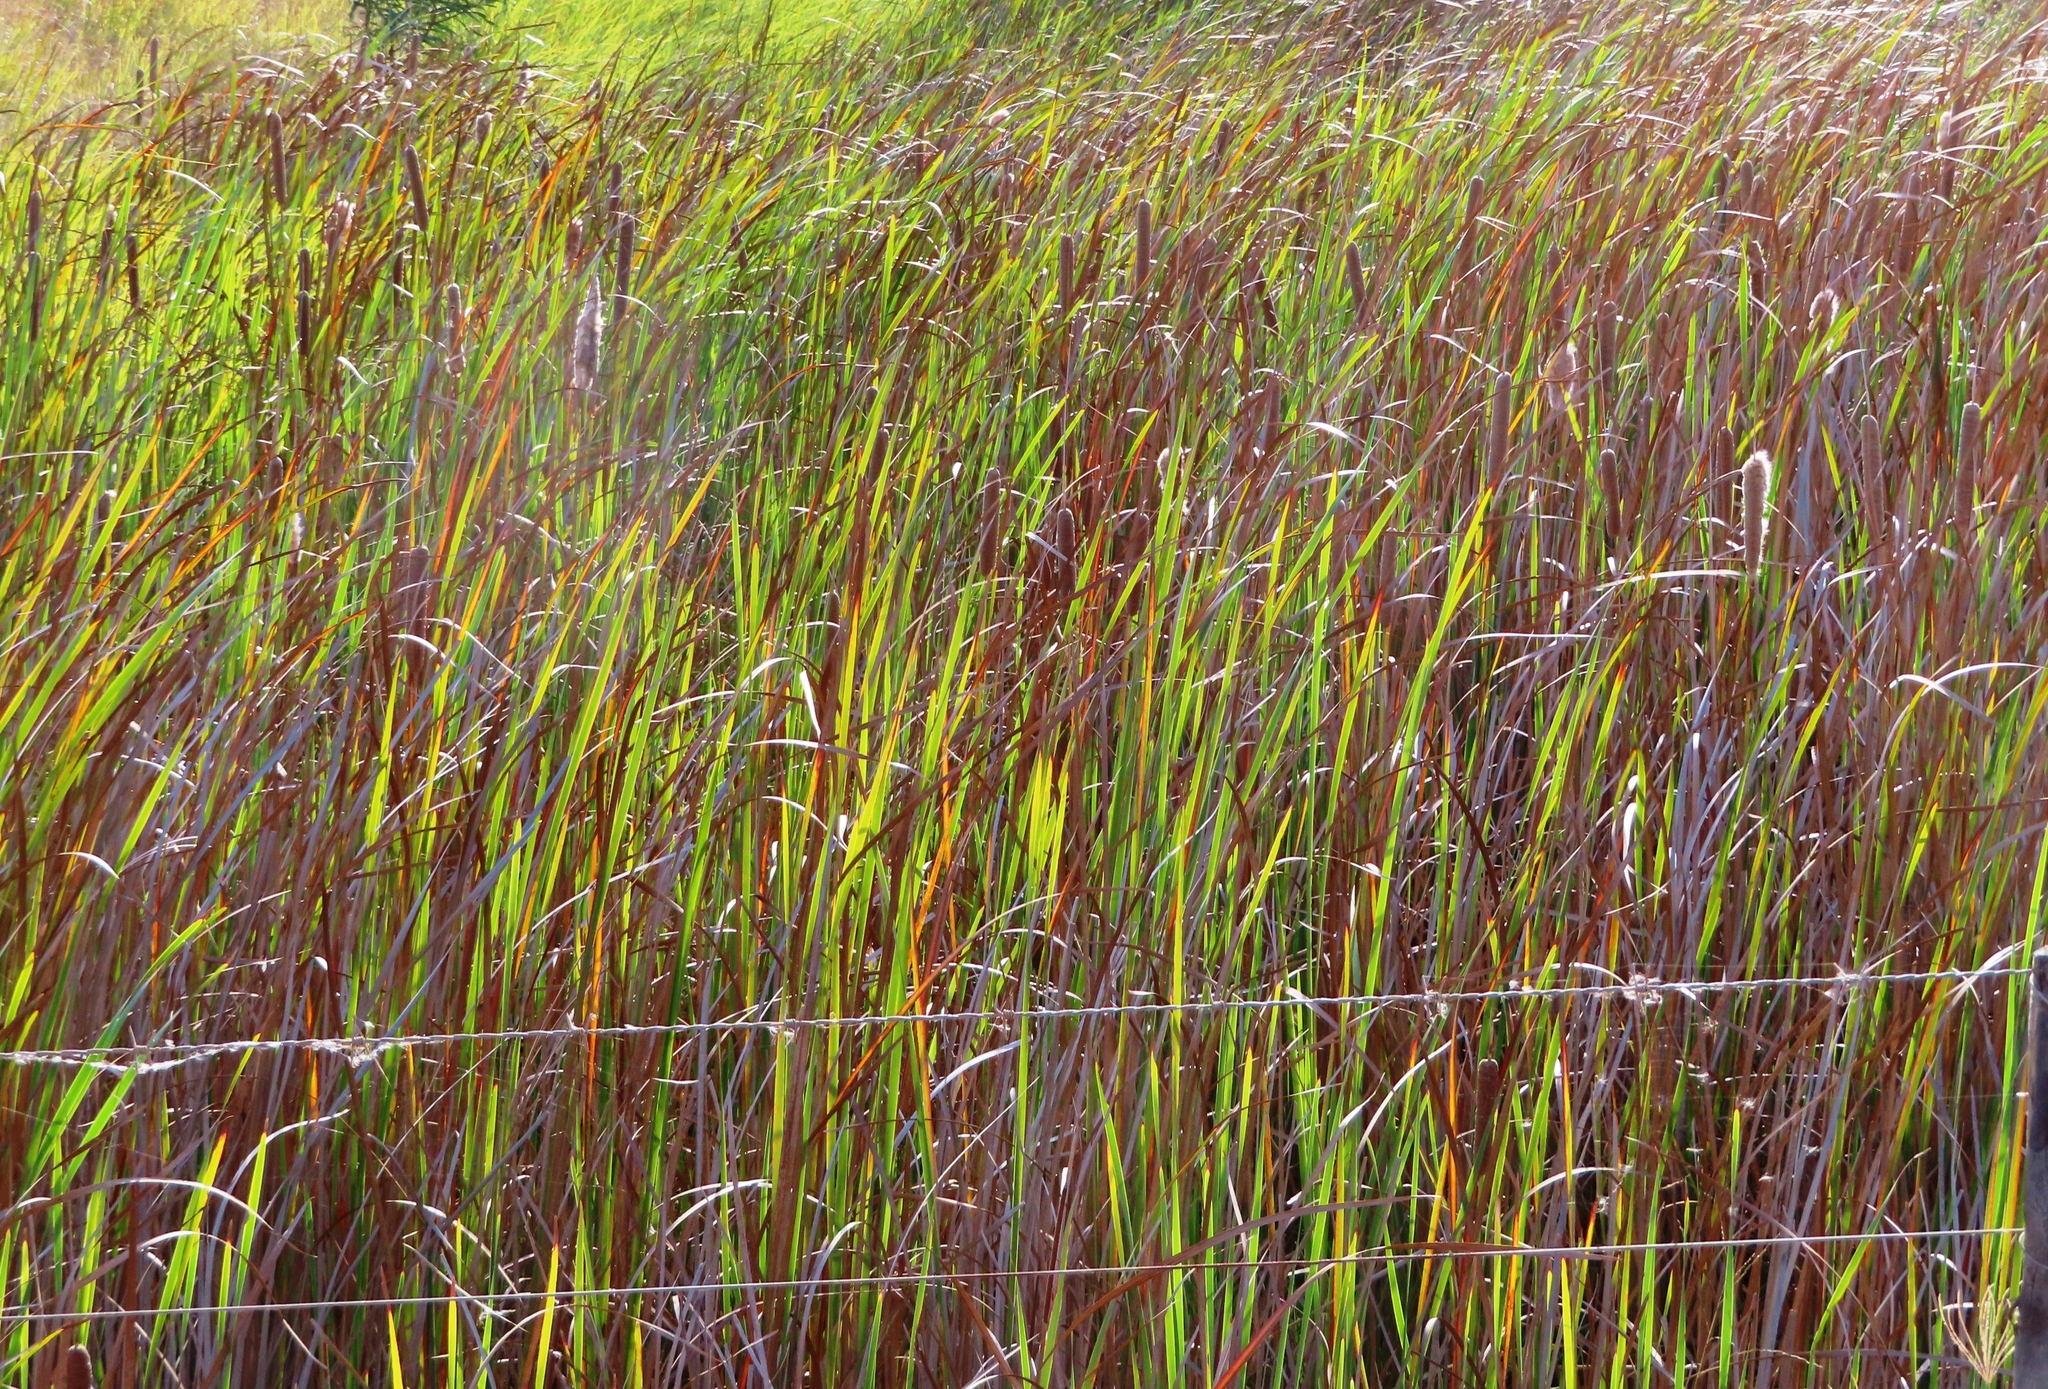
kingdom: Plantae
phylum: Tracheophyta
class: Liliopsida
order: Poales
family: Typhaceae
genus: Typha
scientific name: Typha capensis
